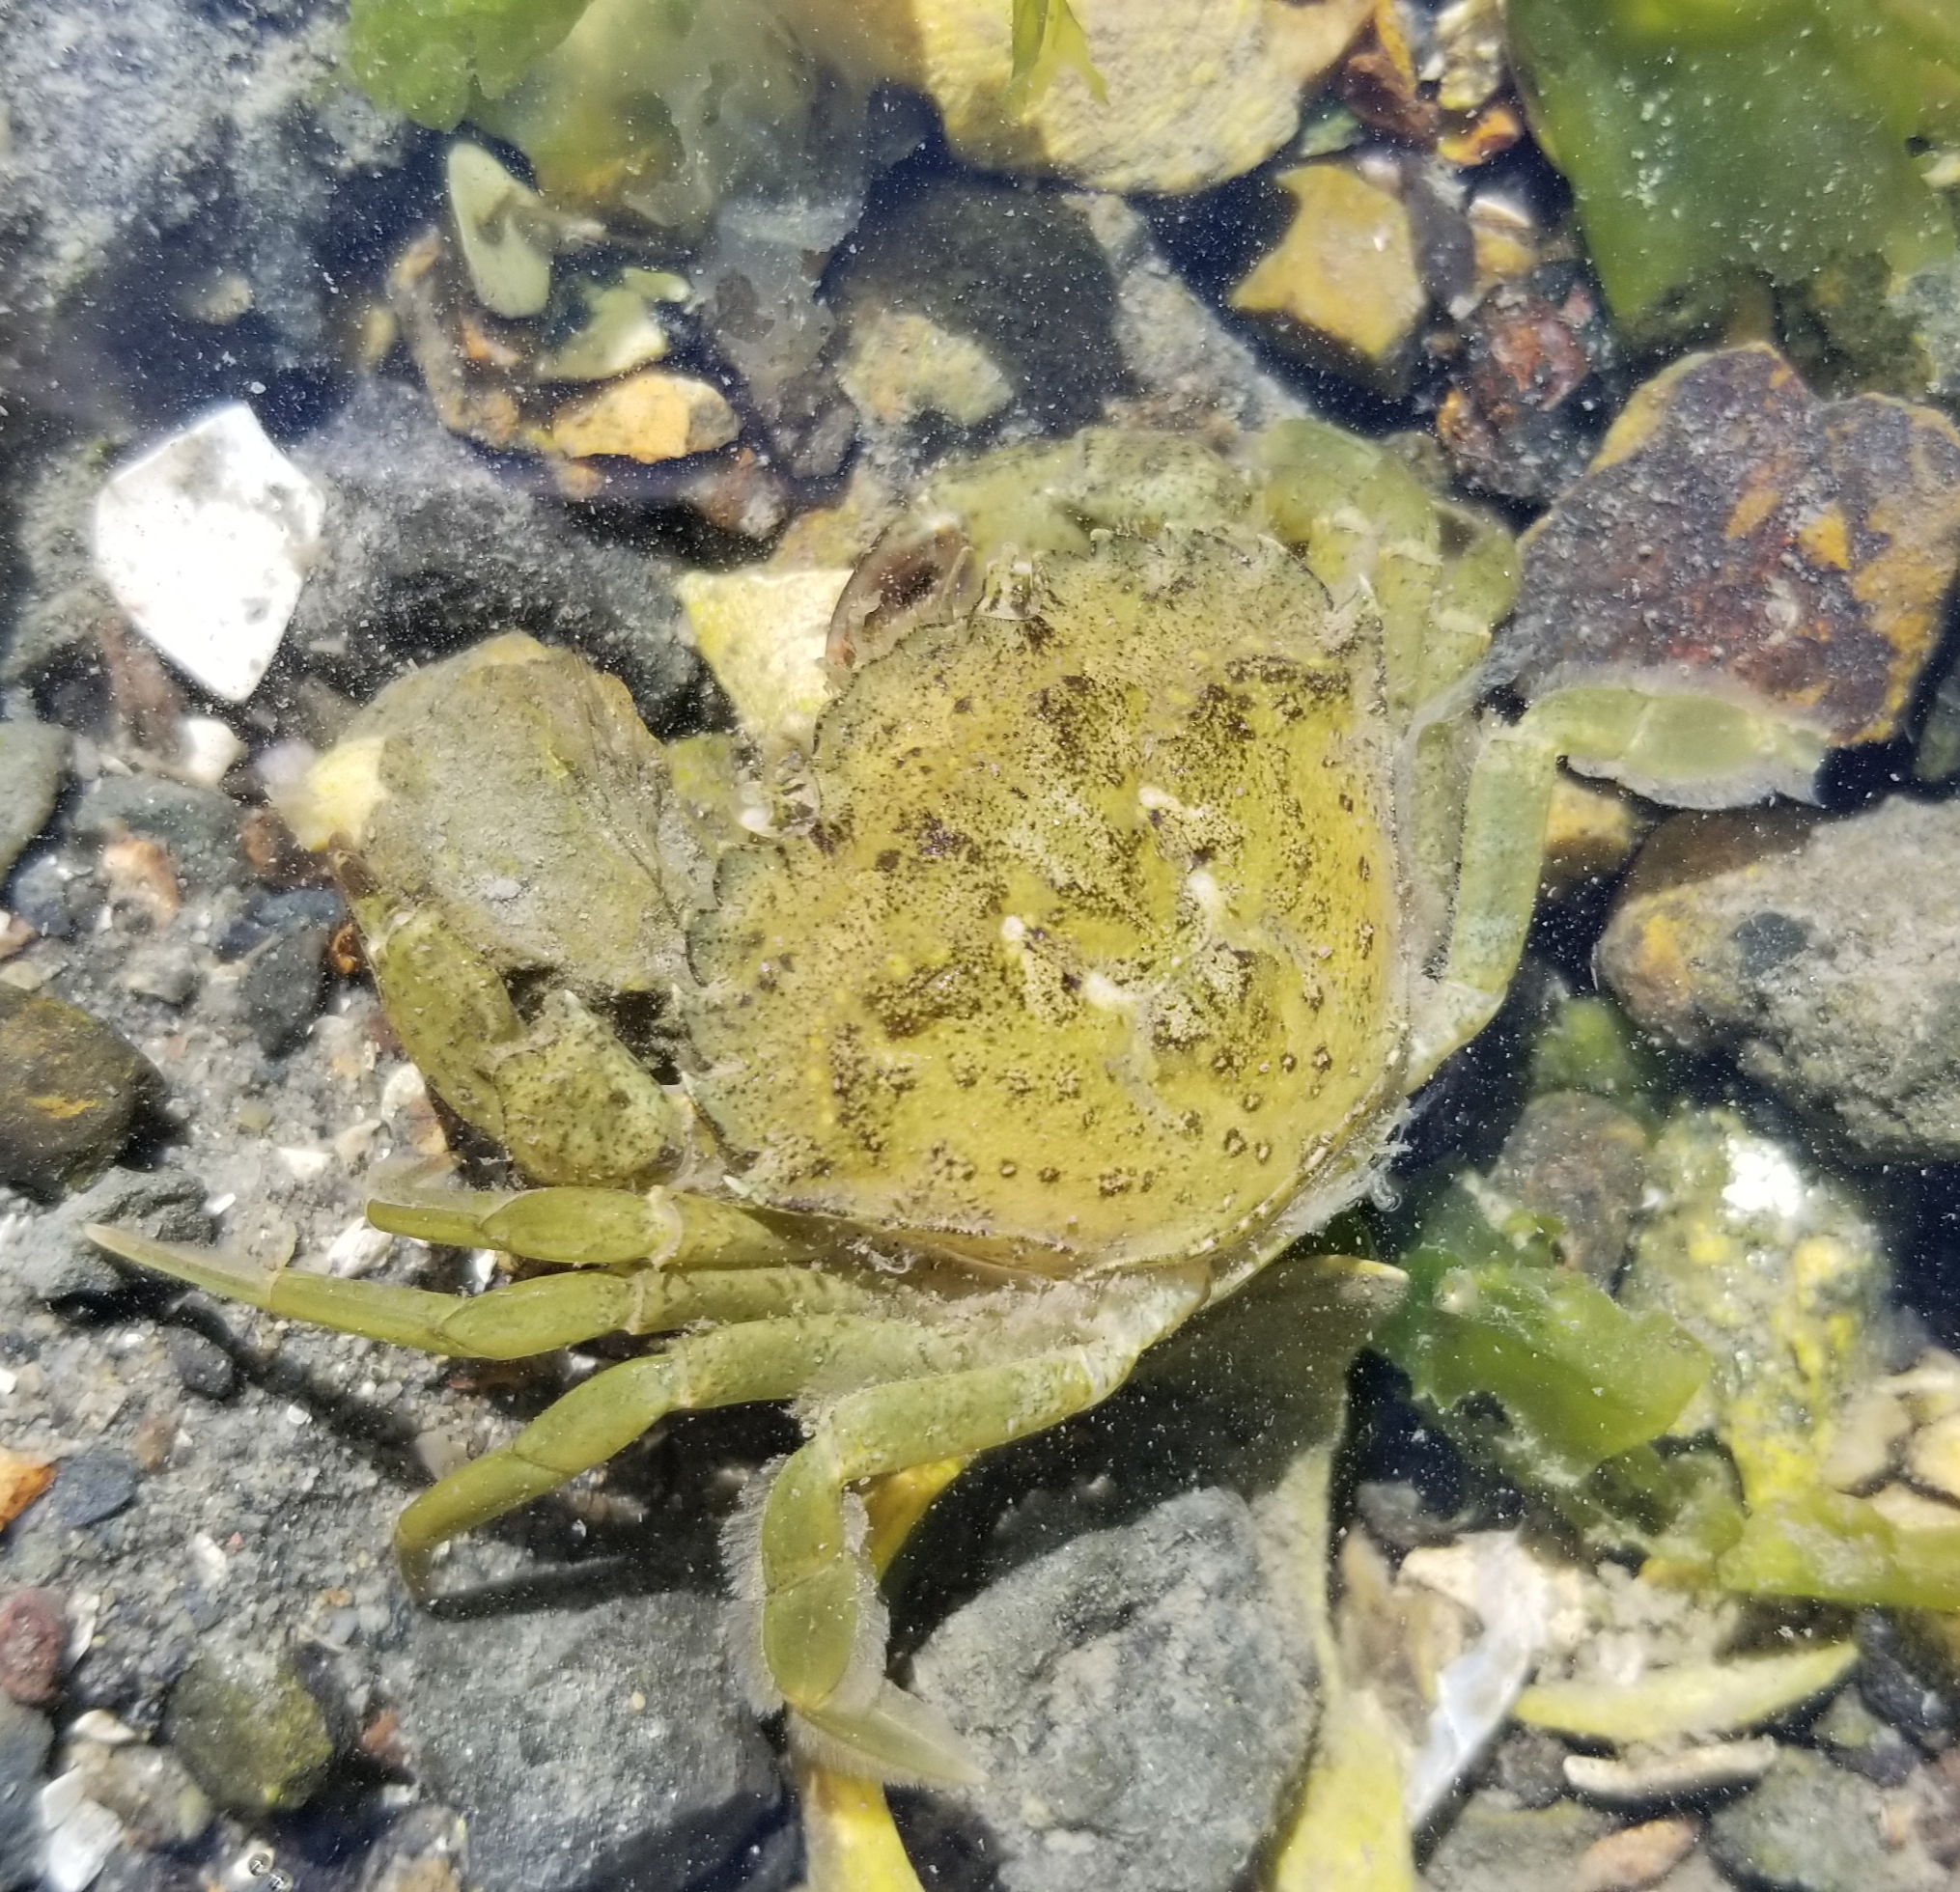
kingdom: Animalia
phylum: Arthropoda
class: Malacostraca
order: Decapoda
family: Carcinidae
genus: Carcinus
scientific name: Carcinus maenas
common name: European green crab
